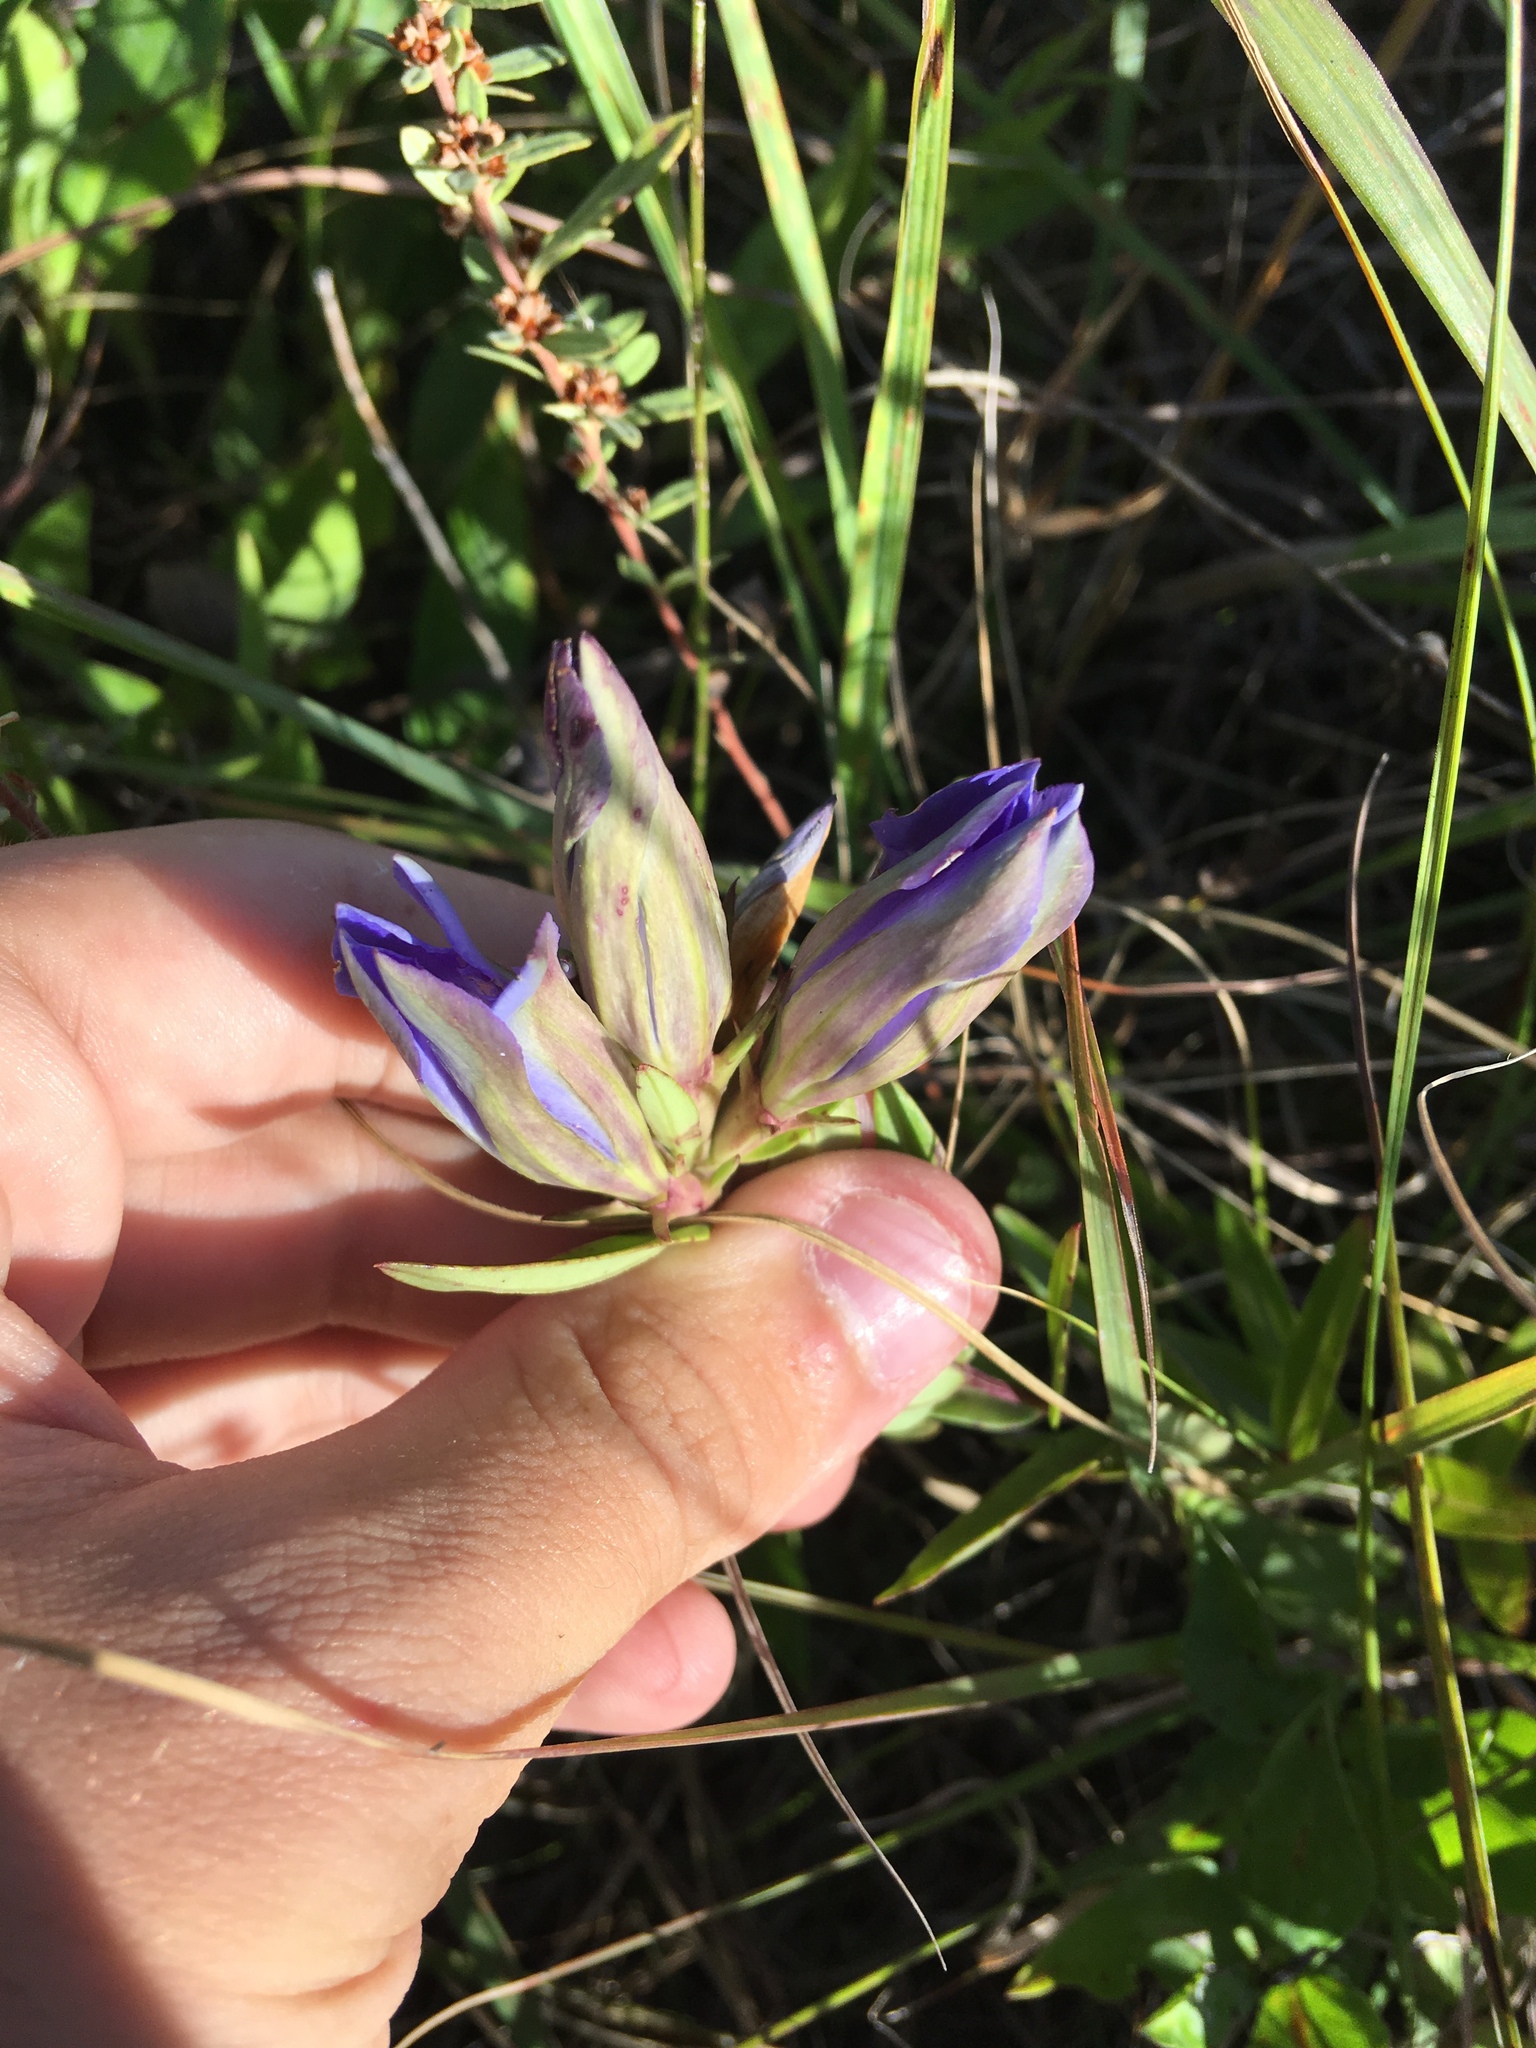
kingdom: Plantae
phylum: Tracheophyta
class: Magnoliopsida
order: Gentianales
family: Gentianaceae
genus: Gentiana
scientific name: Gentiana puberulenta
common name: Downy gentian
